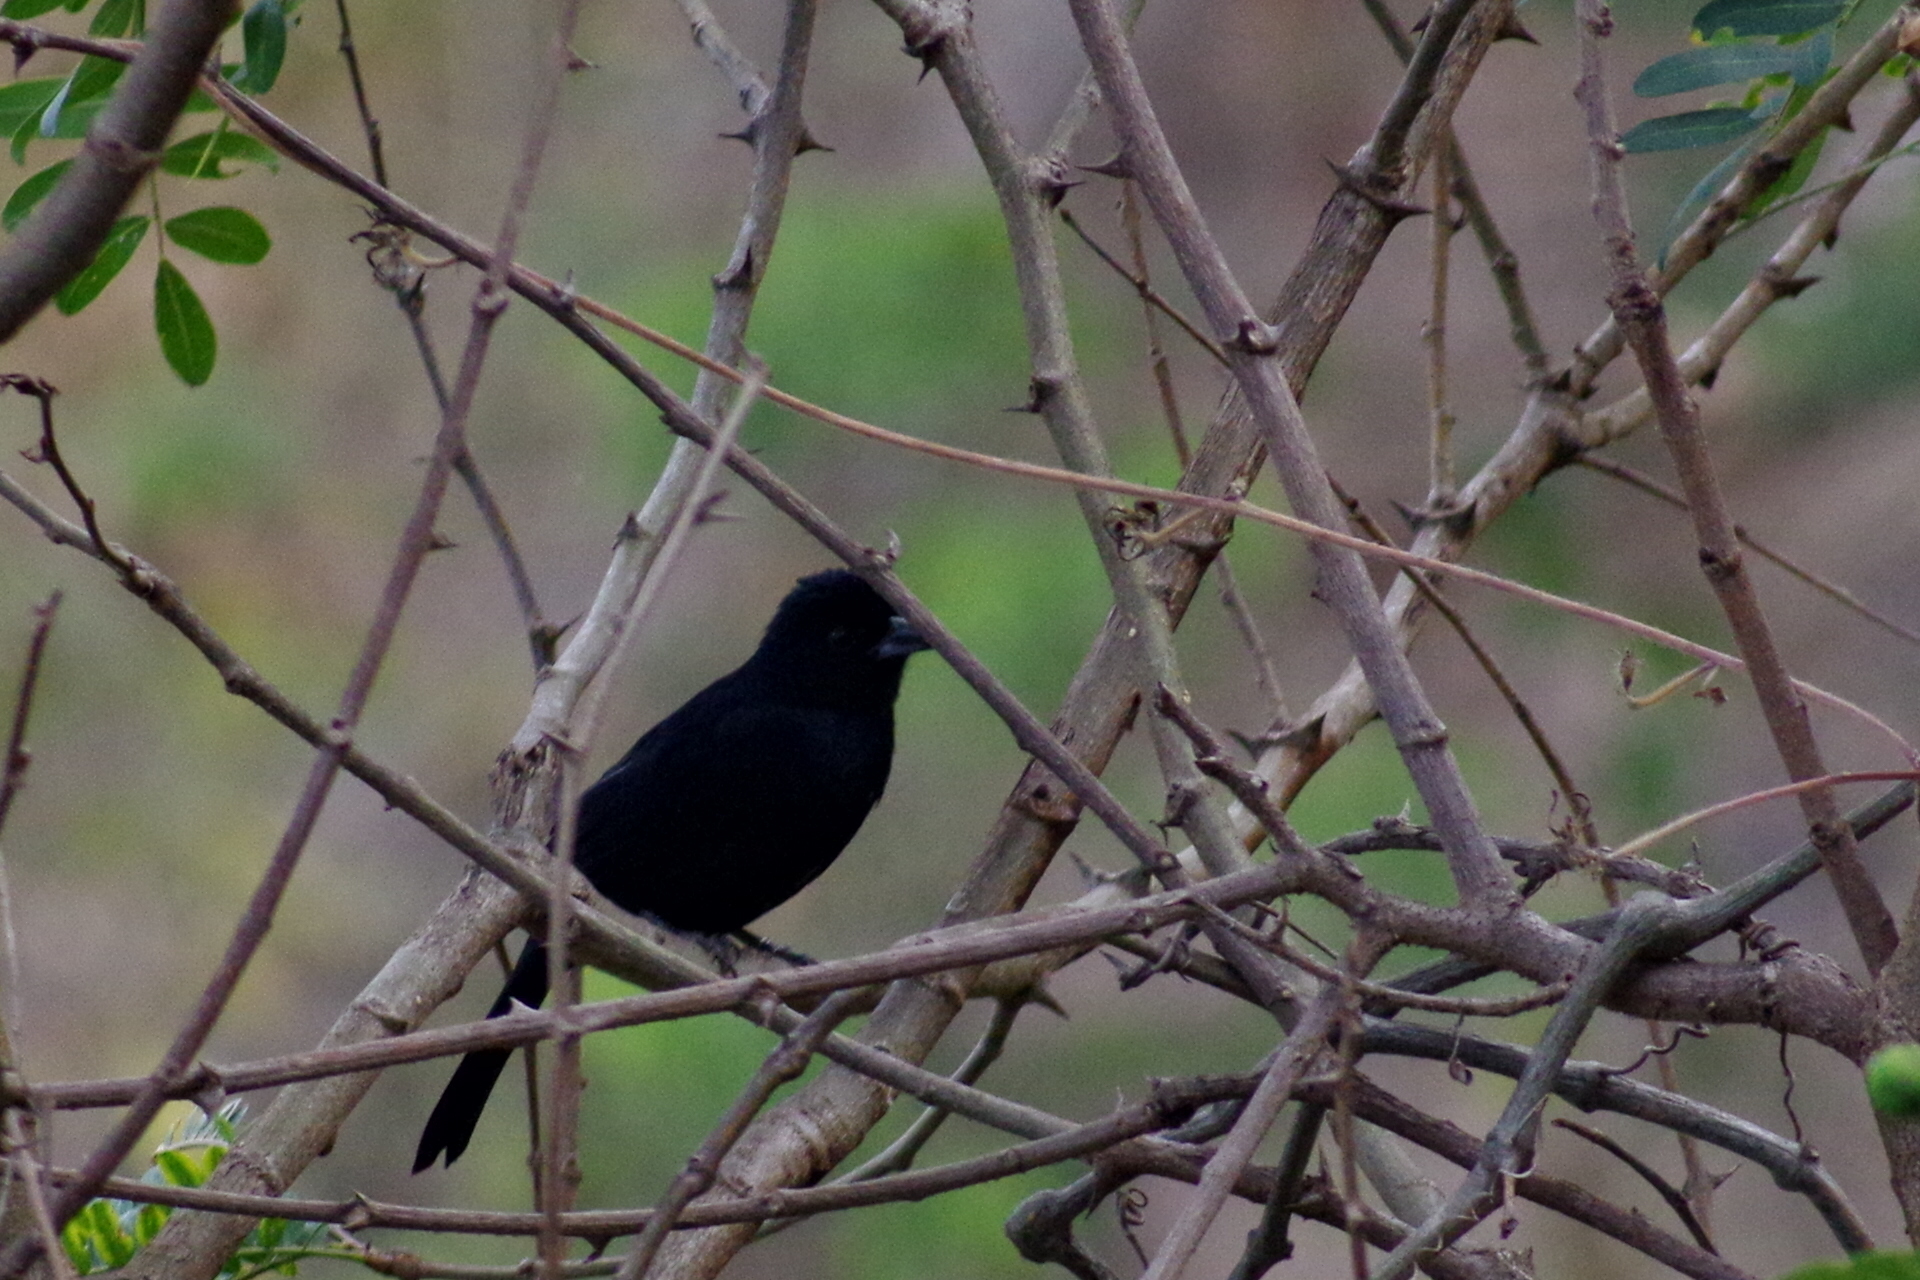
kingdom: Animalia
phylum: Chordata
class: Aves
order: Passeriformes
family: Thraupidae
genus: Tachyphonus
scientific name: Tachyphonus rufus
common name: White-lined tanager
